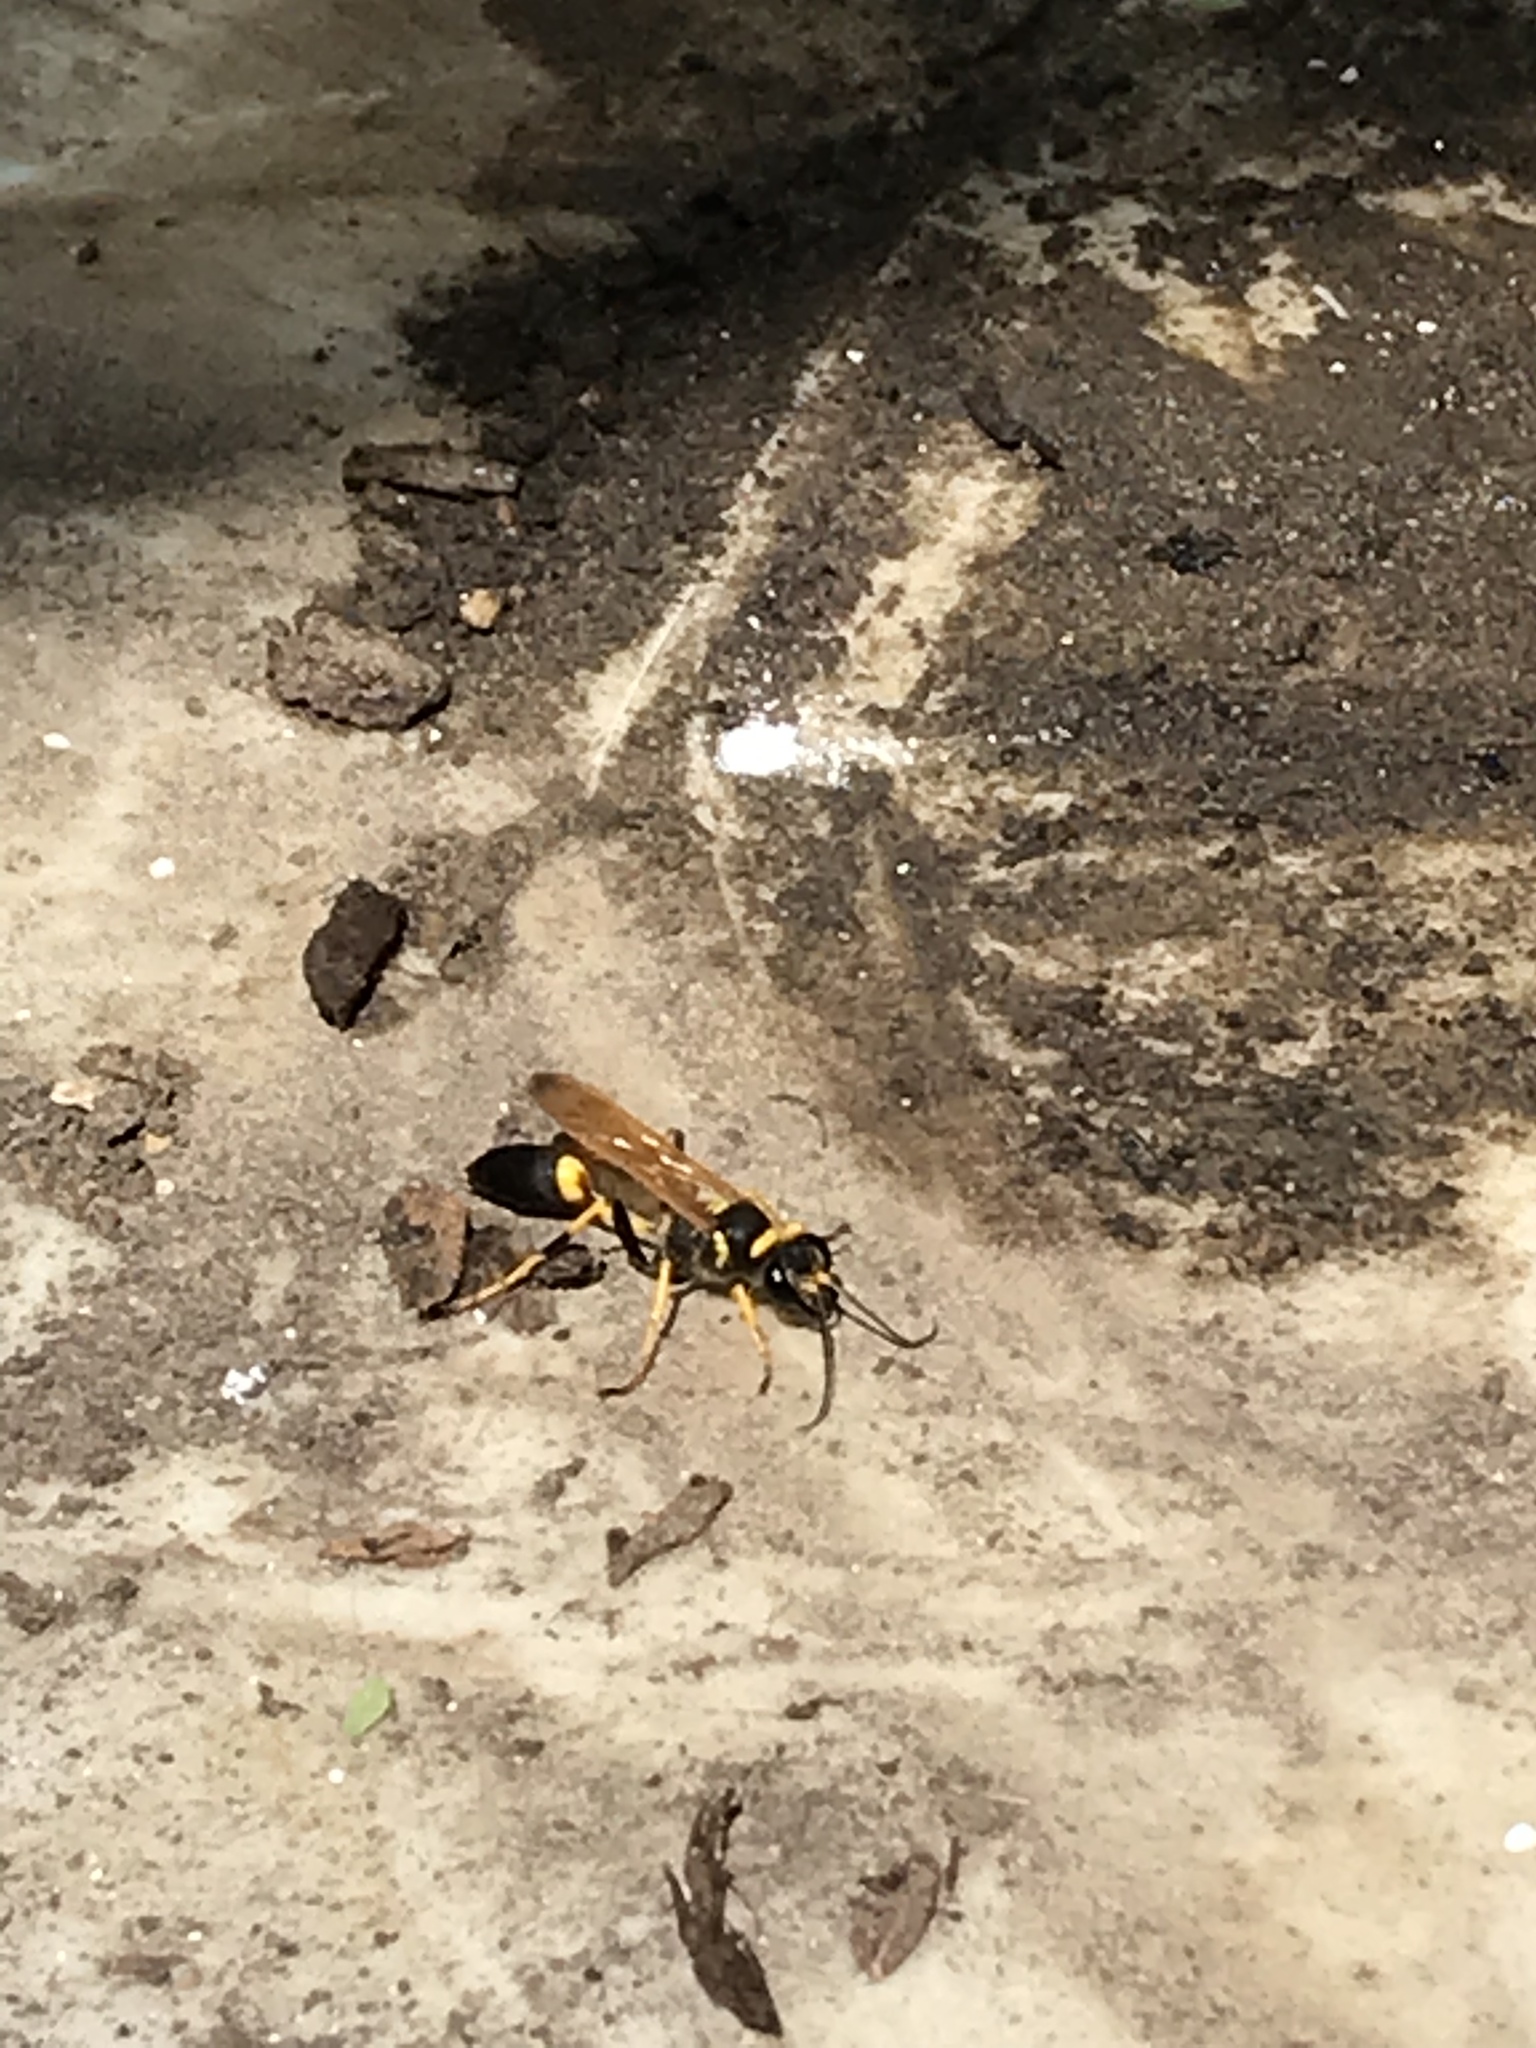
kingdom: Animalia
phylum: Arthropoda
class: Insecta
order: Hymenoptera
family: Sphecidae
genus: Sceliphron
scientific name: Sceliphron caementarium
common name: Mud dauber
